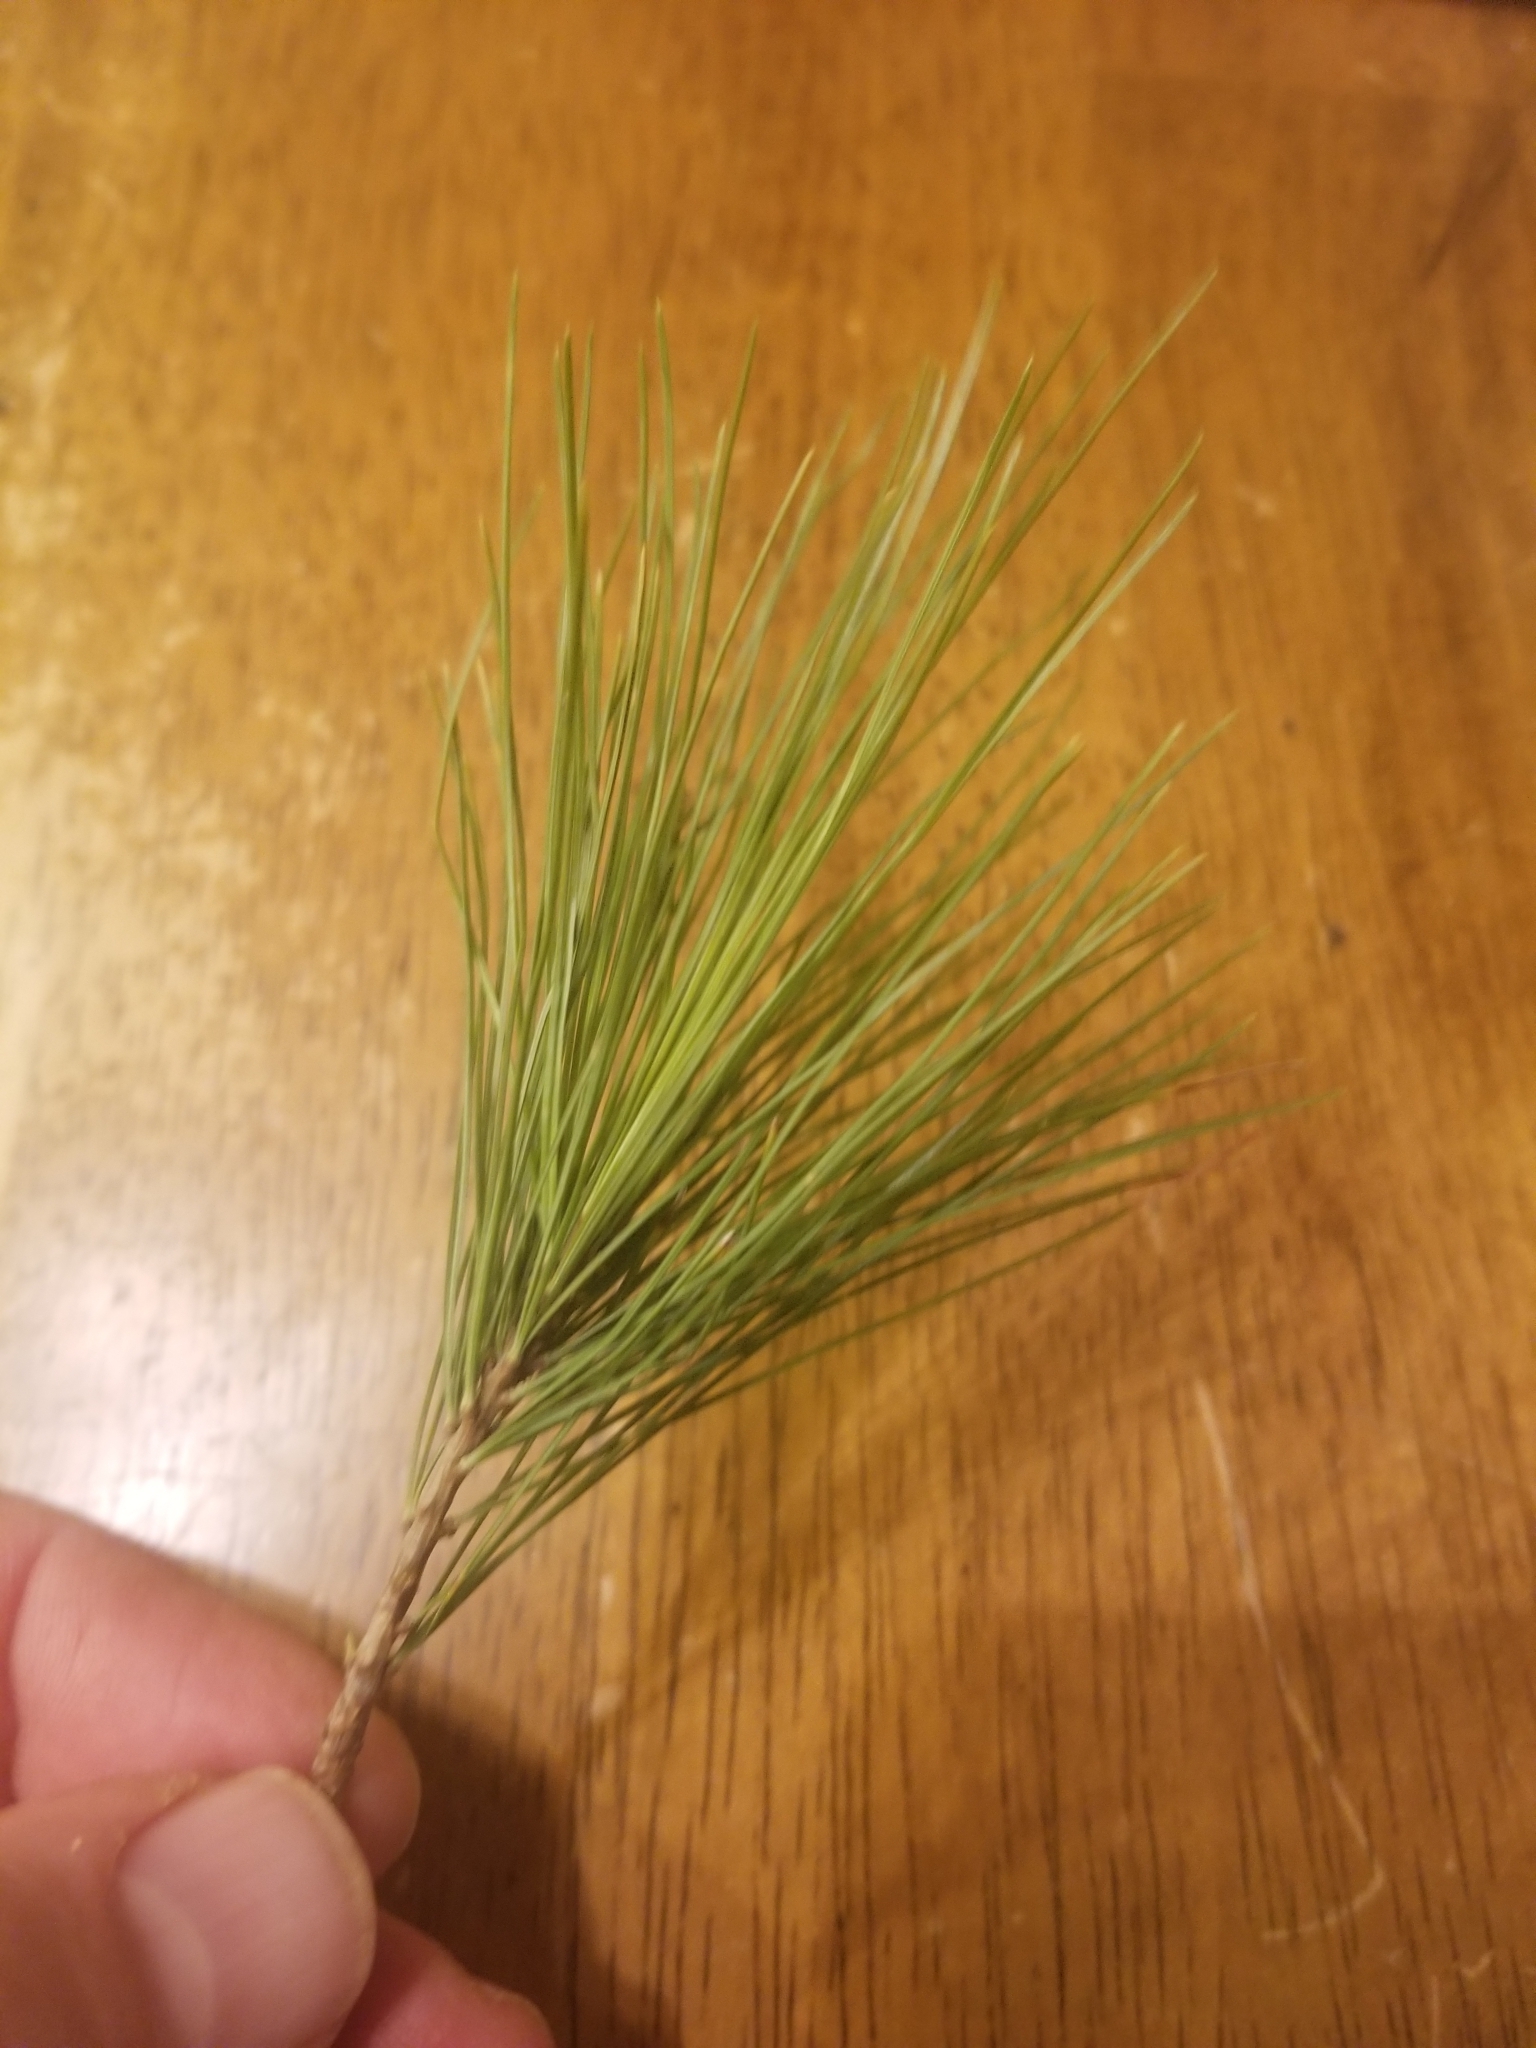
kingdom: Plantae
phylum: Tracheophyta
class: Pinopsida
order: Pinales
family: Pinaceae
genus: Pinus
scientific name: Pinus strobus
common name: Weymouth pine
